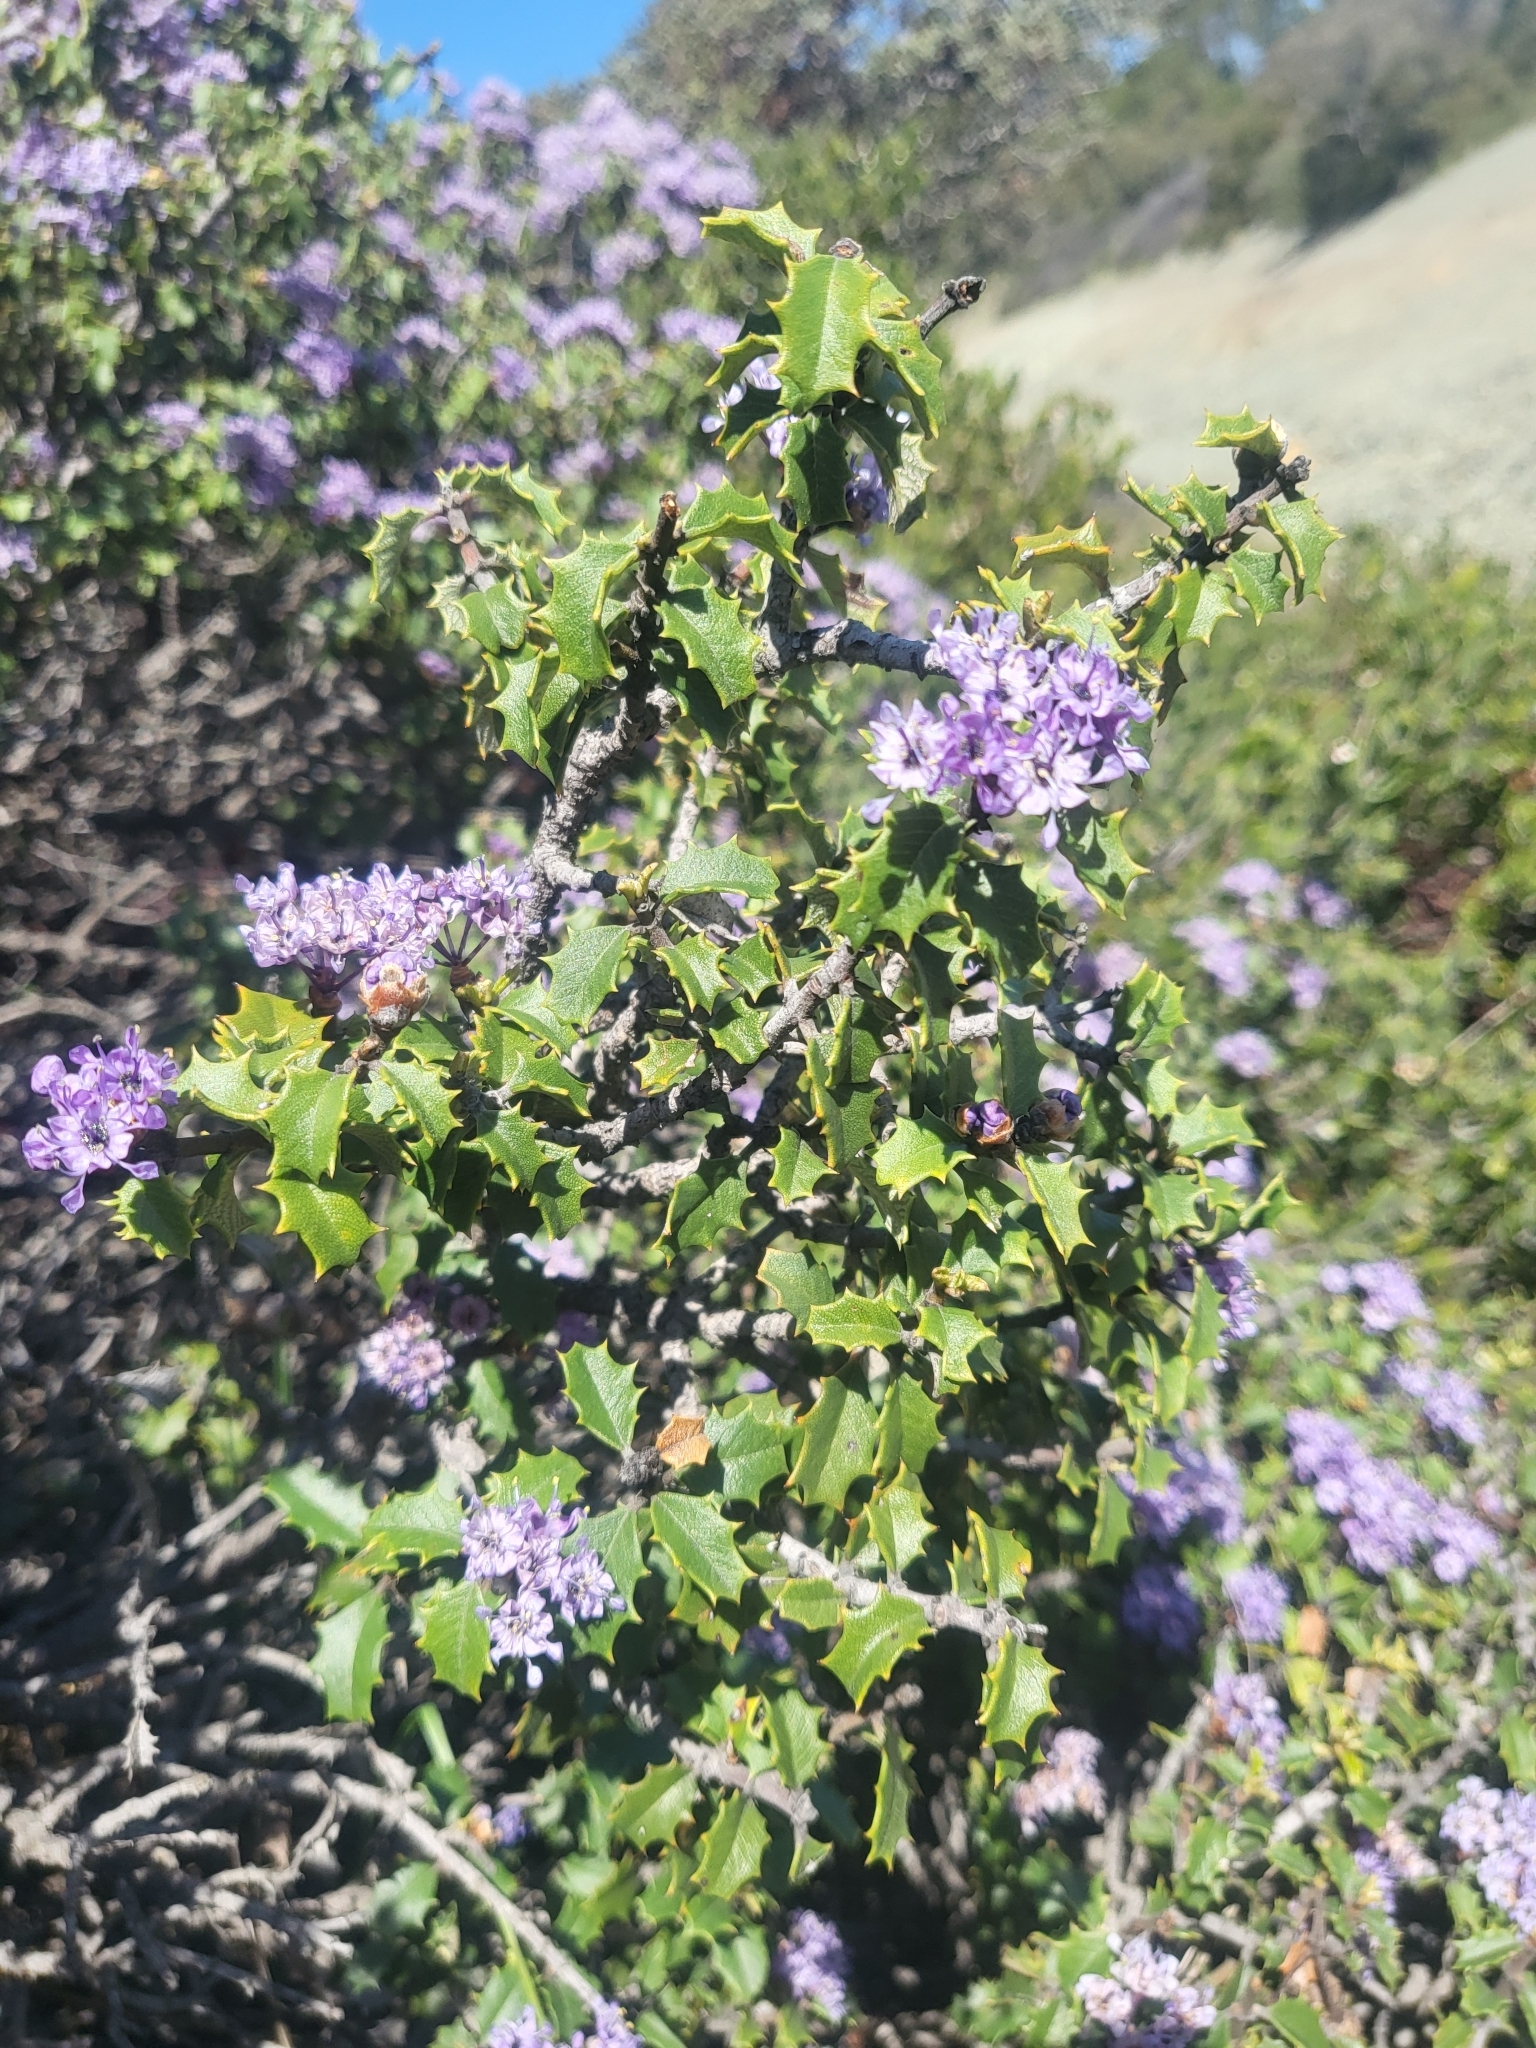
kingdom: Plantae
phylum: Tracheophyta
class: Magnoliopsida
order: Rosales
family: Rhamnaceae
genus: Ceanothus
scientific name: Ceanothus jepsonii
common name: Muskbrush
